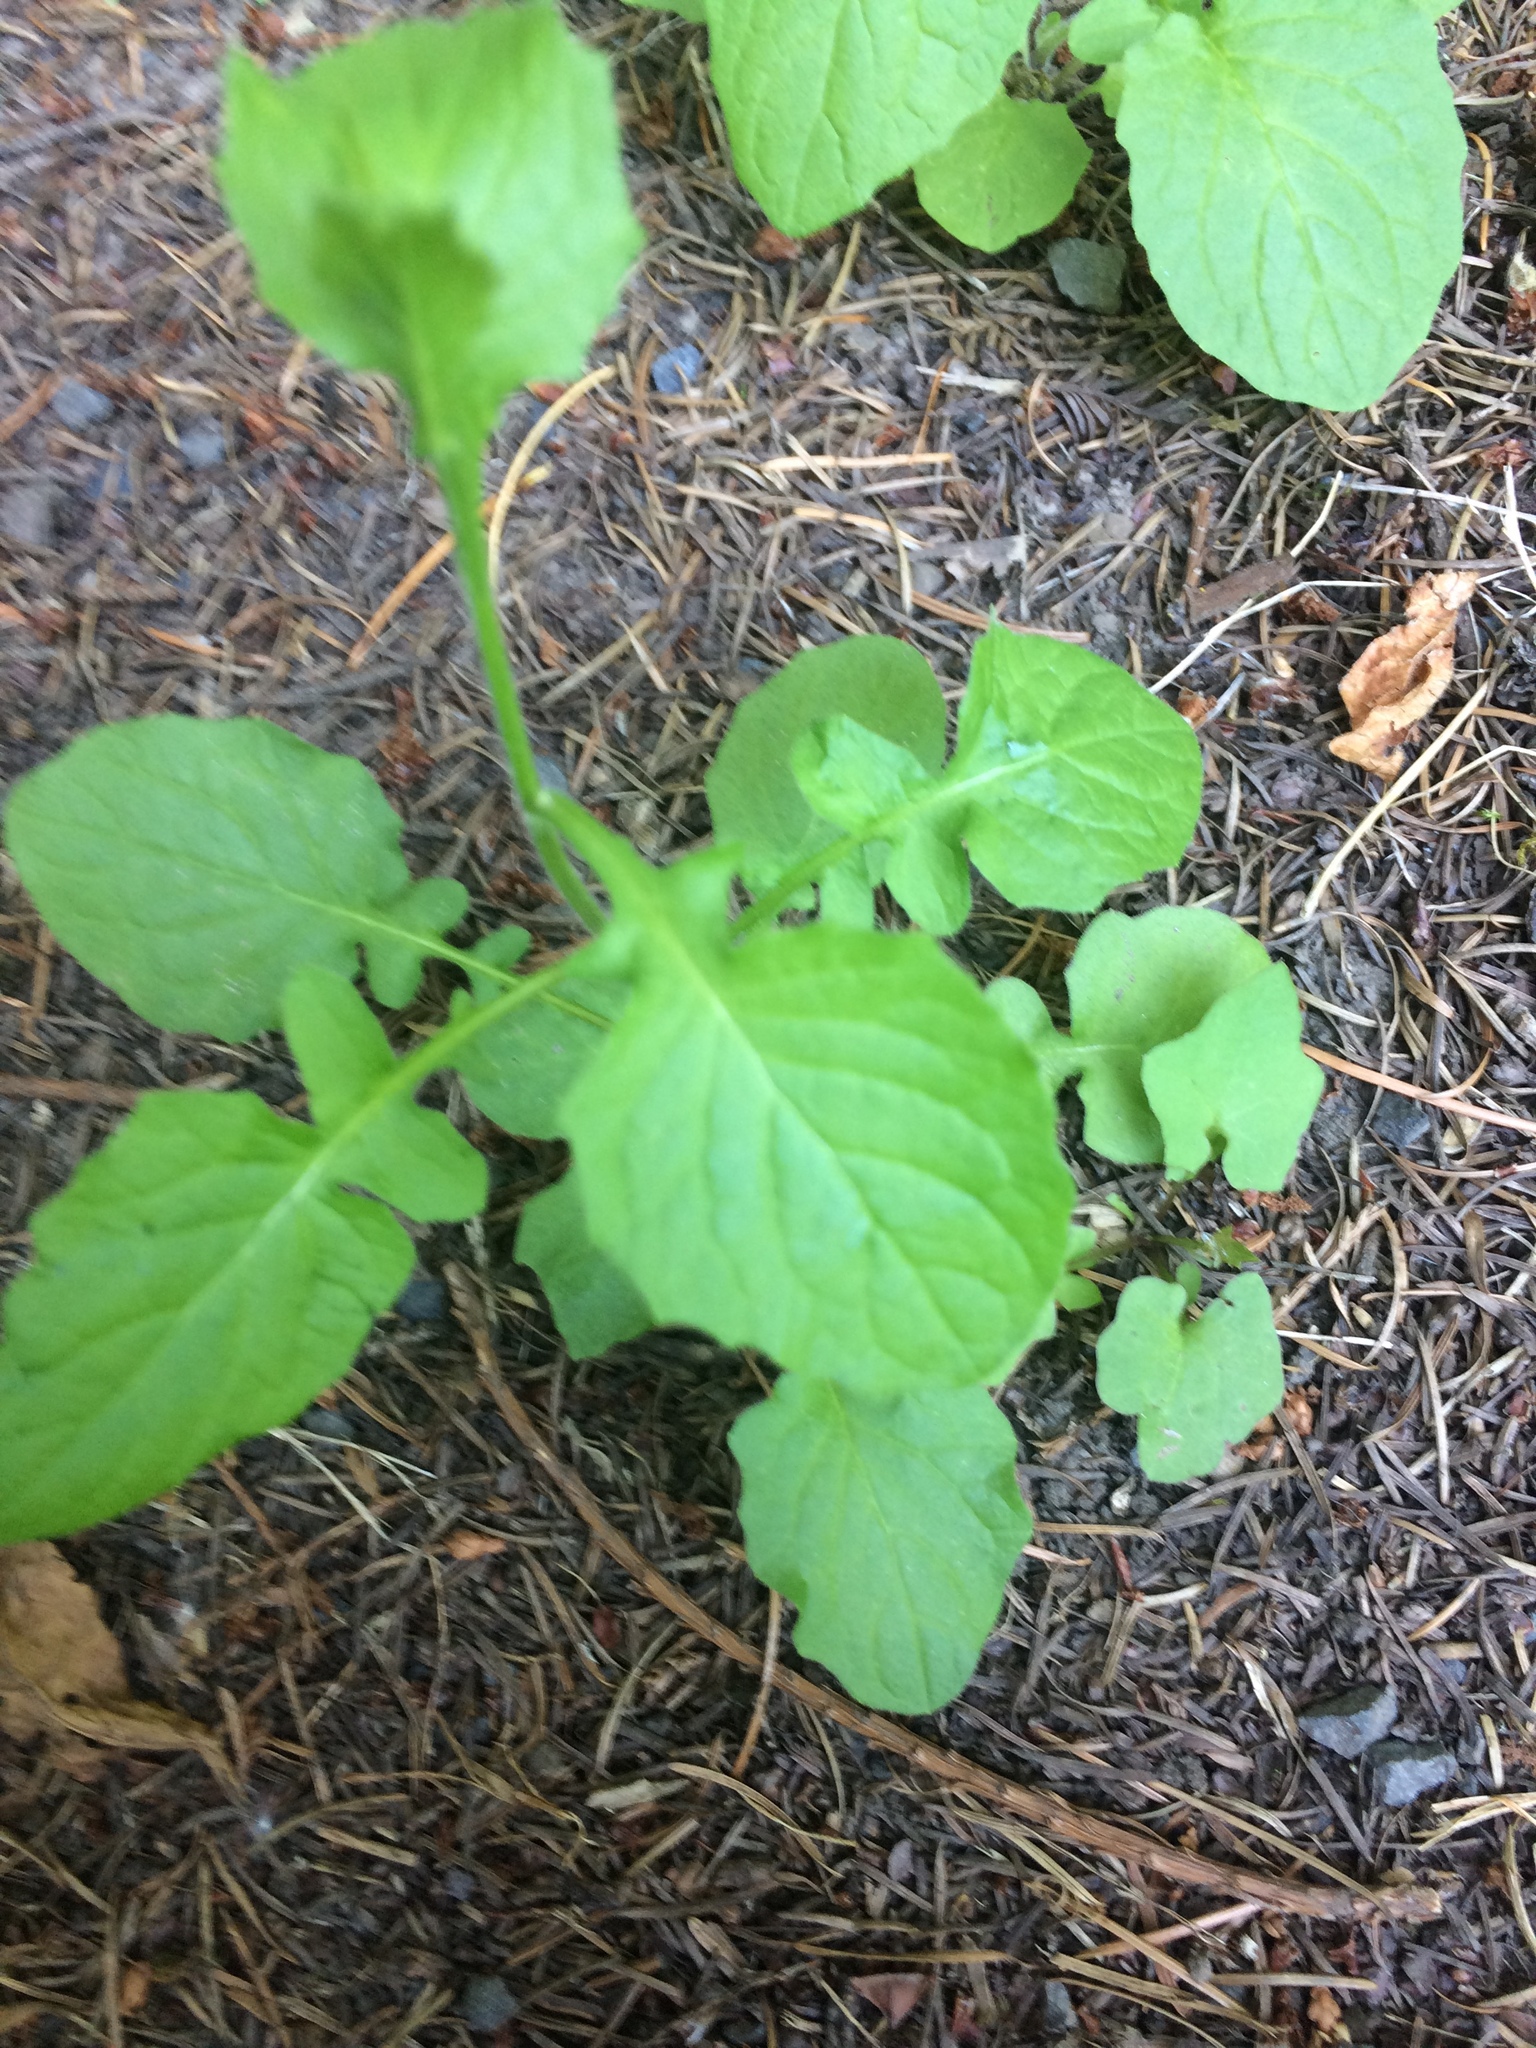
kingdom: Plantae
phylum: Tracheophyta
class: Magnoliopsida
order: Asterales
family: Asteraceae
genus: Lapsana
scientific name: Lapsana communis
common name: Nipplewort
